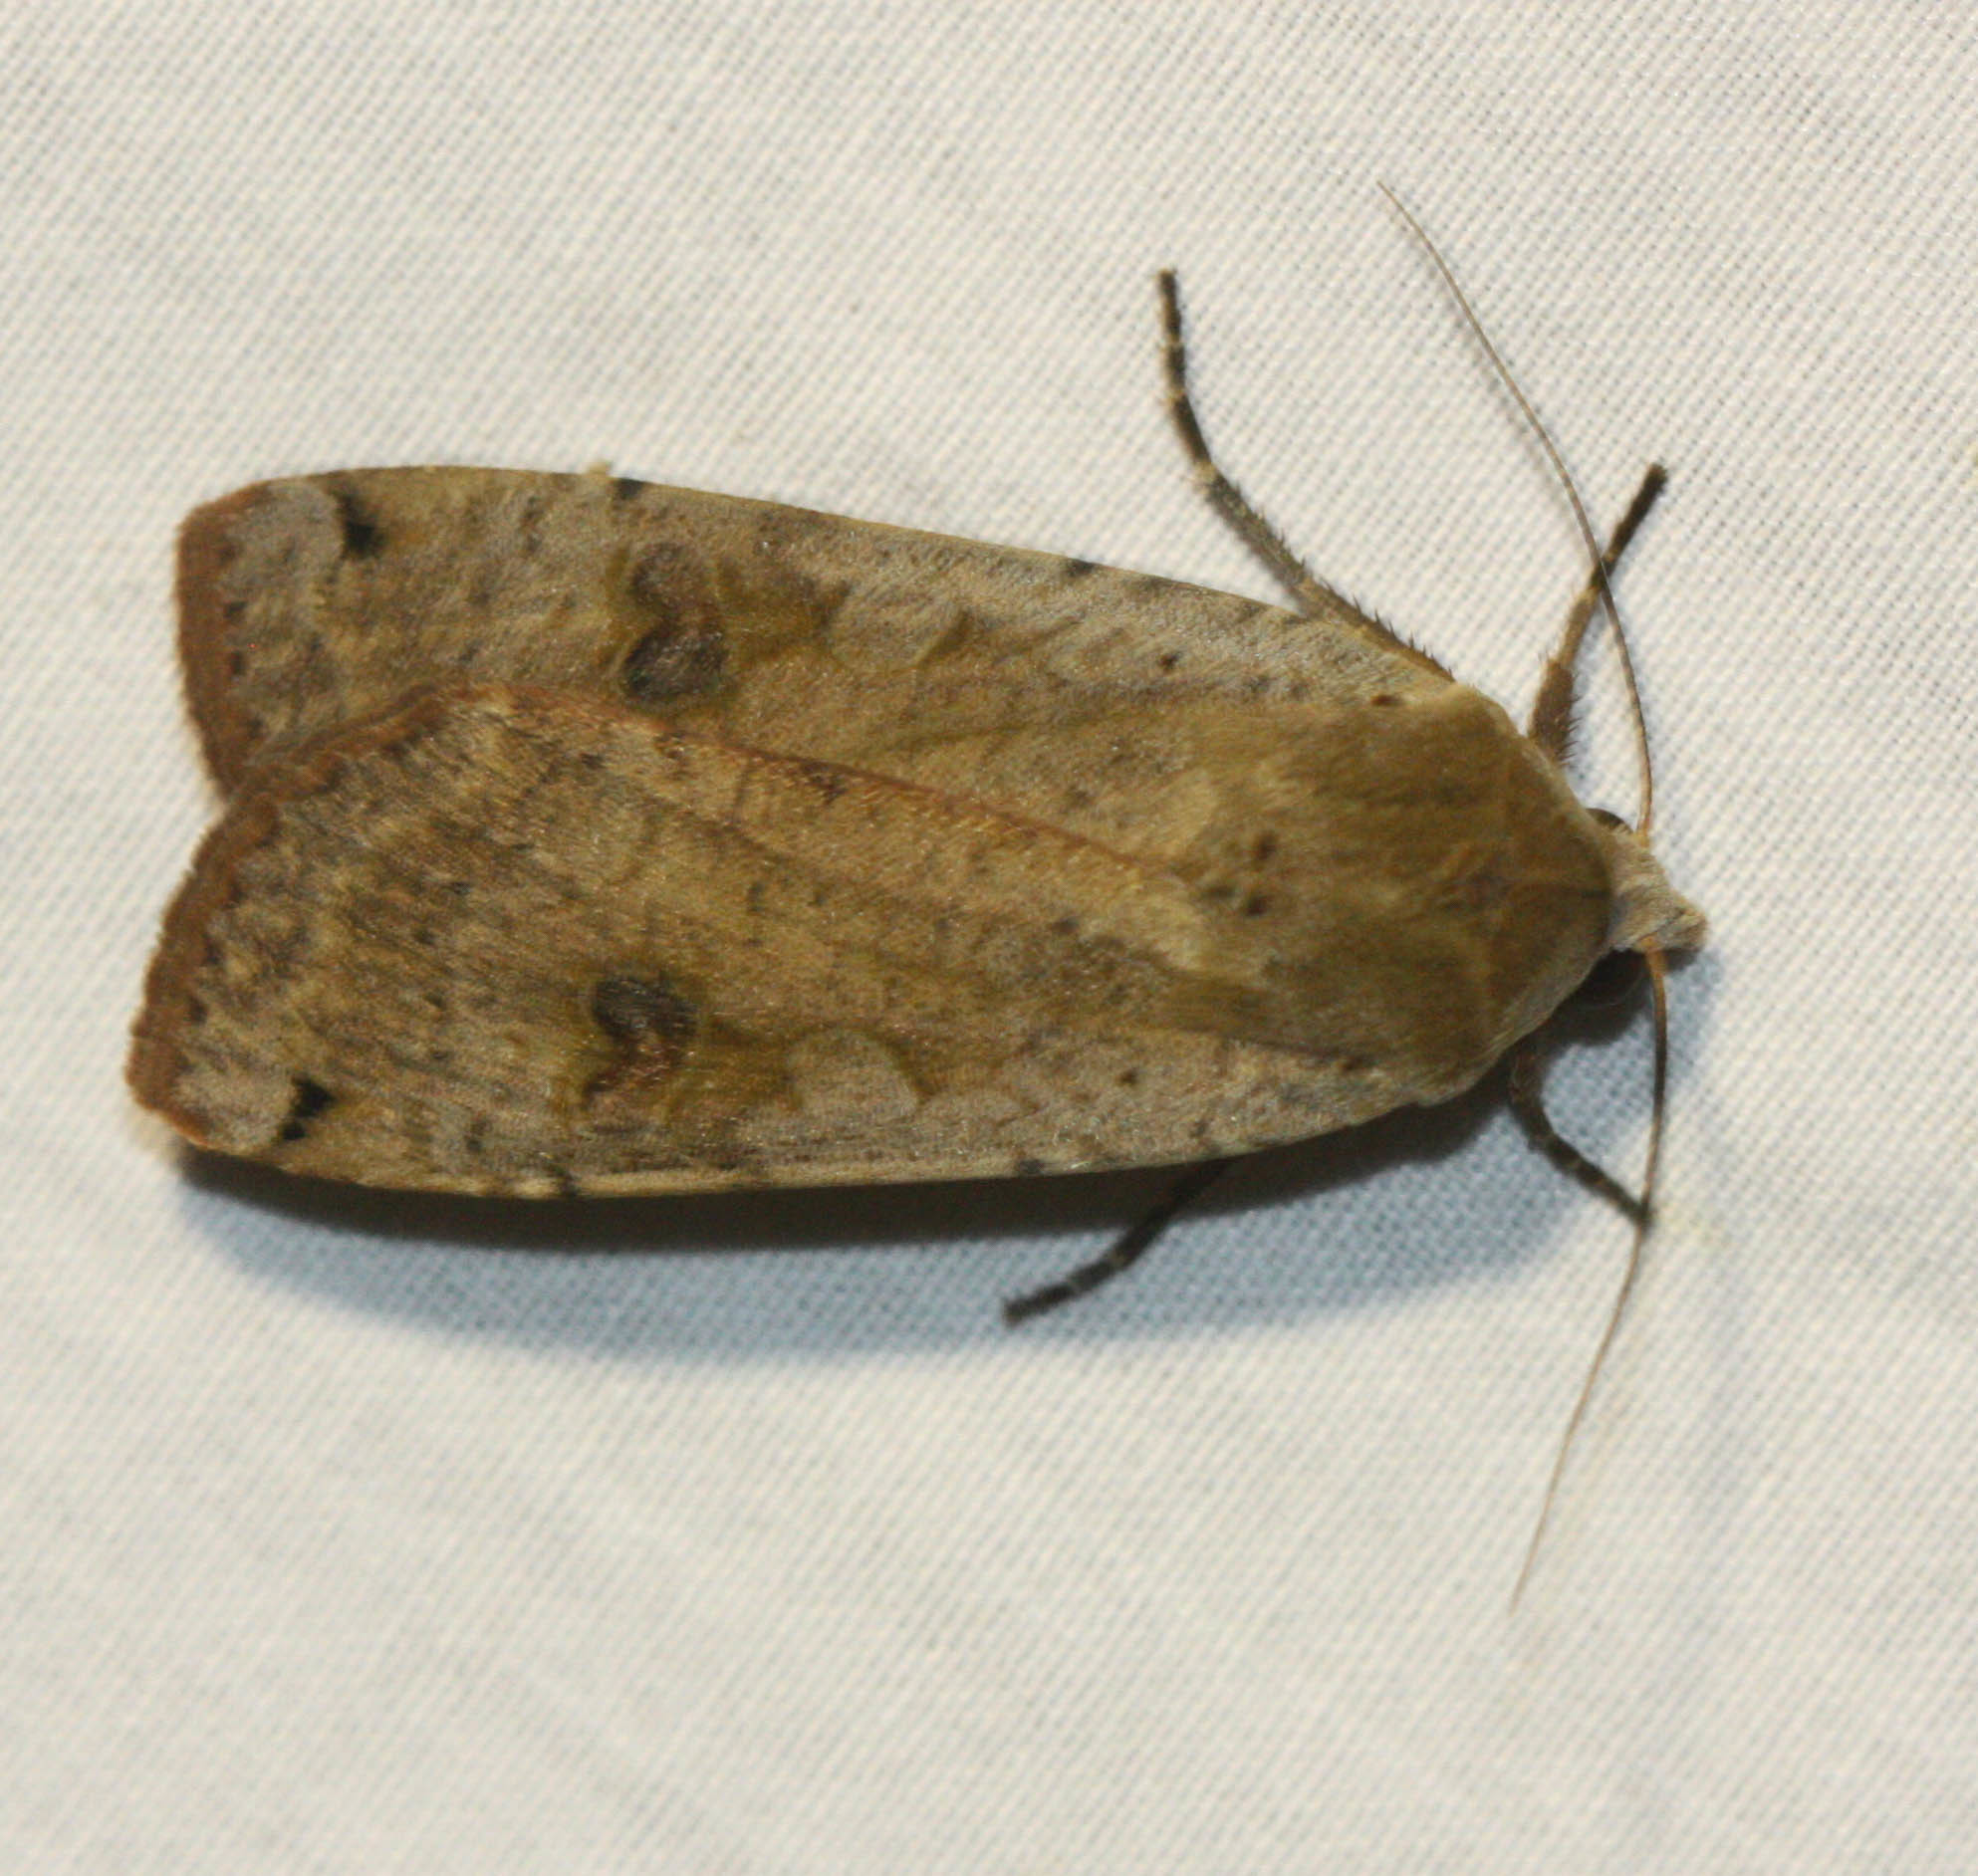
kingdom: Animalia
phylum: Arthropoda
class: Insecta
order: Lepidoptera
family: Noctuidae
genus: Noctua
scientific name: Noctua pronuba
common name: Large yellow underwing
